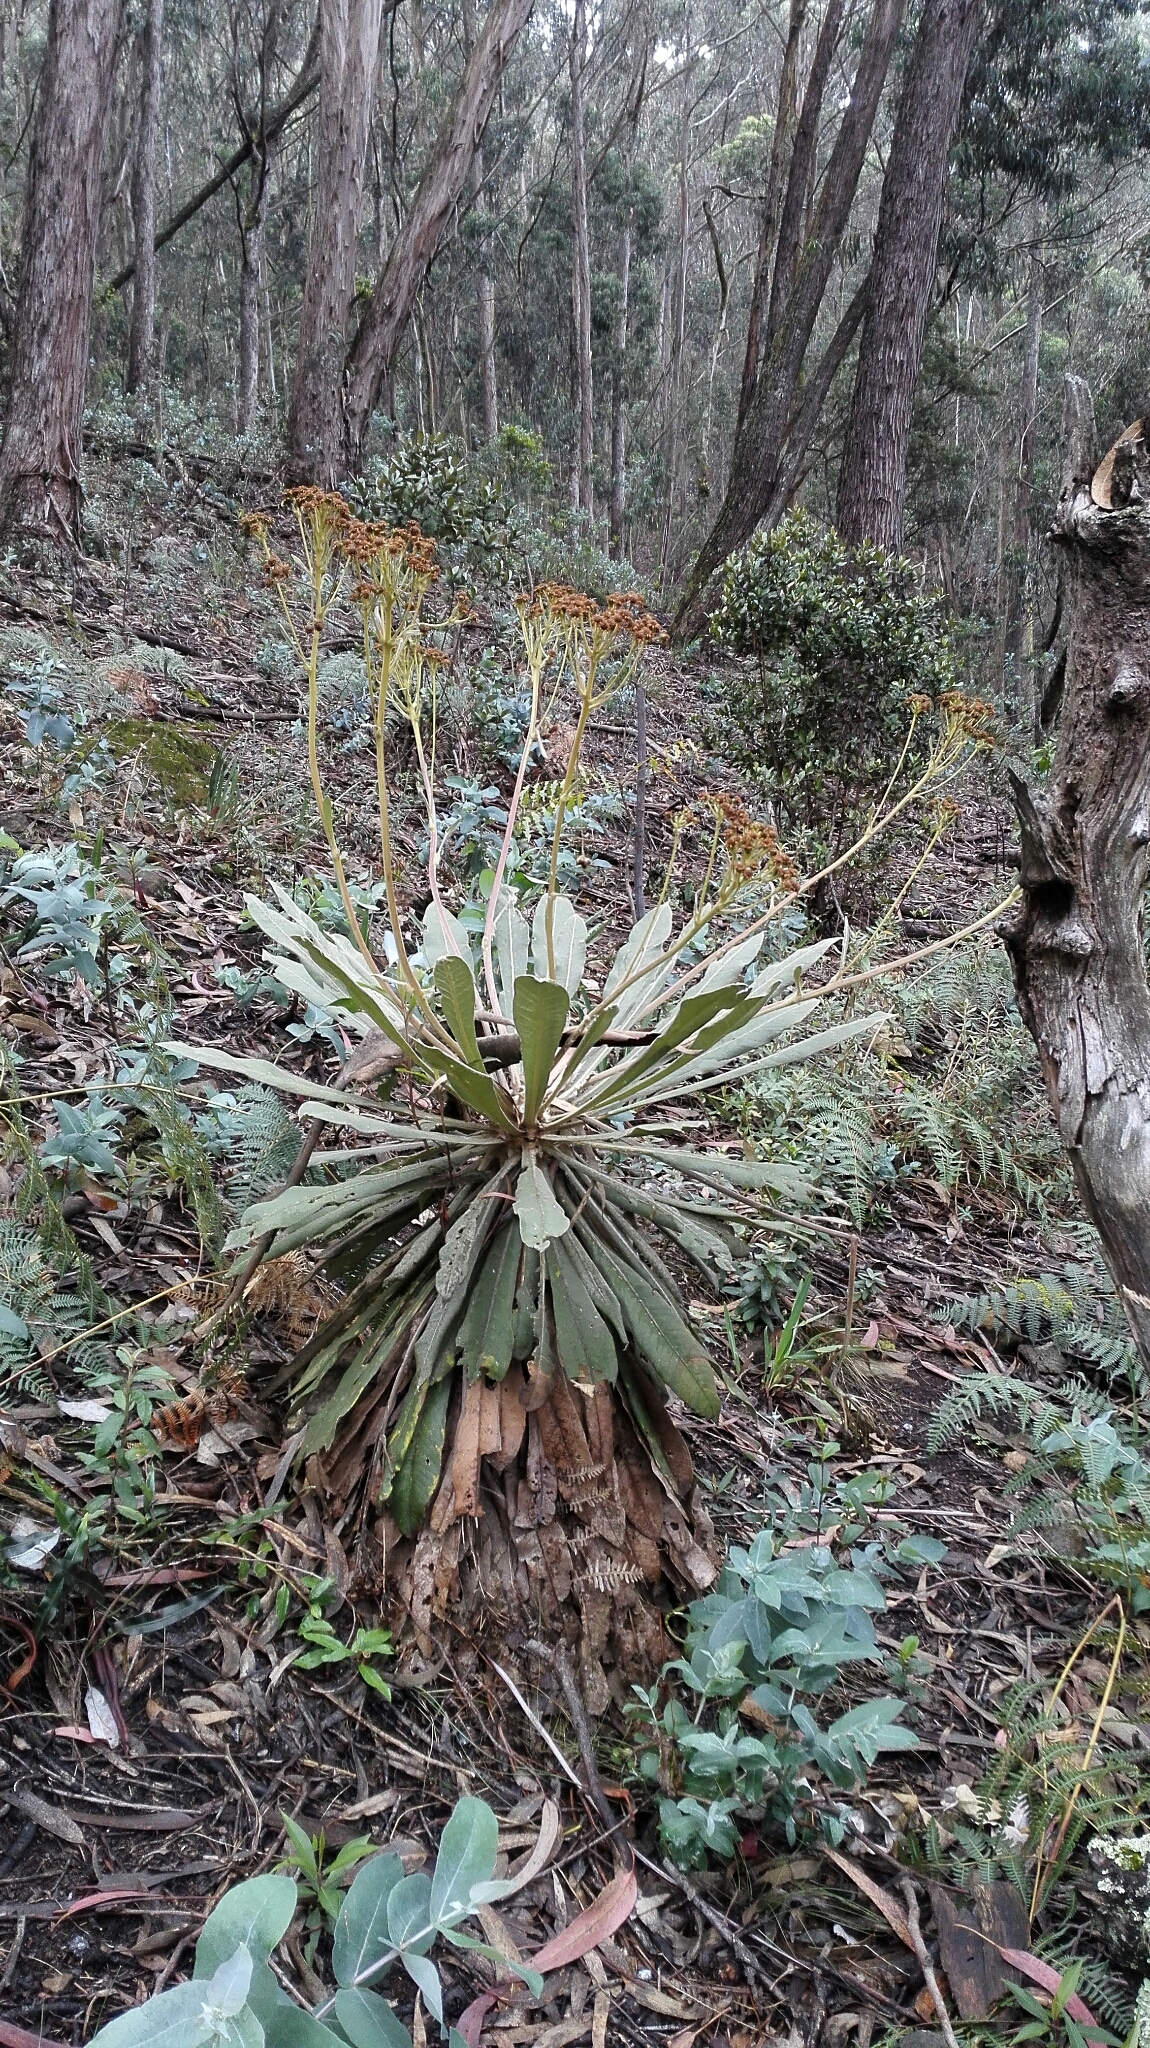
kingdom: Plantae
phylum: Tracheophyta
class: Magnoliopsida
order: Asterales
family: Asteraceae
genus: Espeletia
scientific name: Espeletia corymbosa
